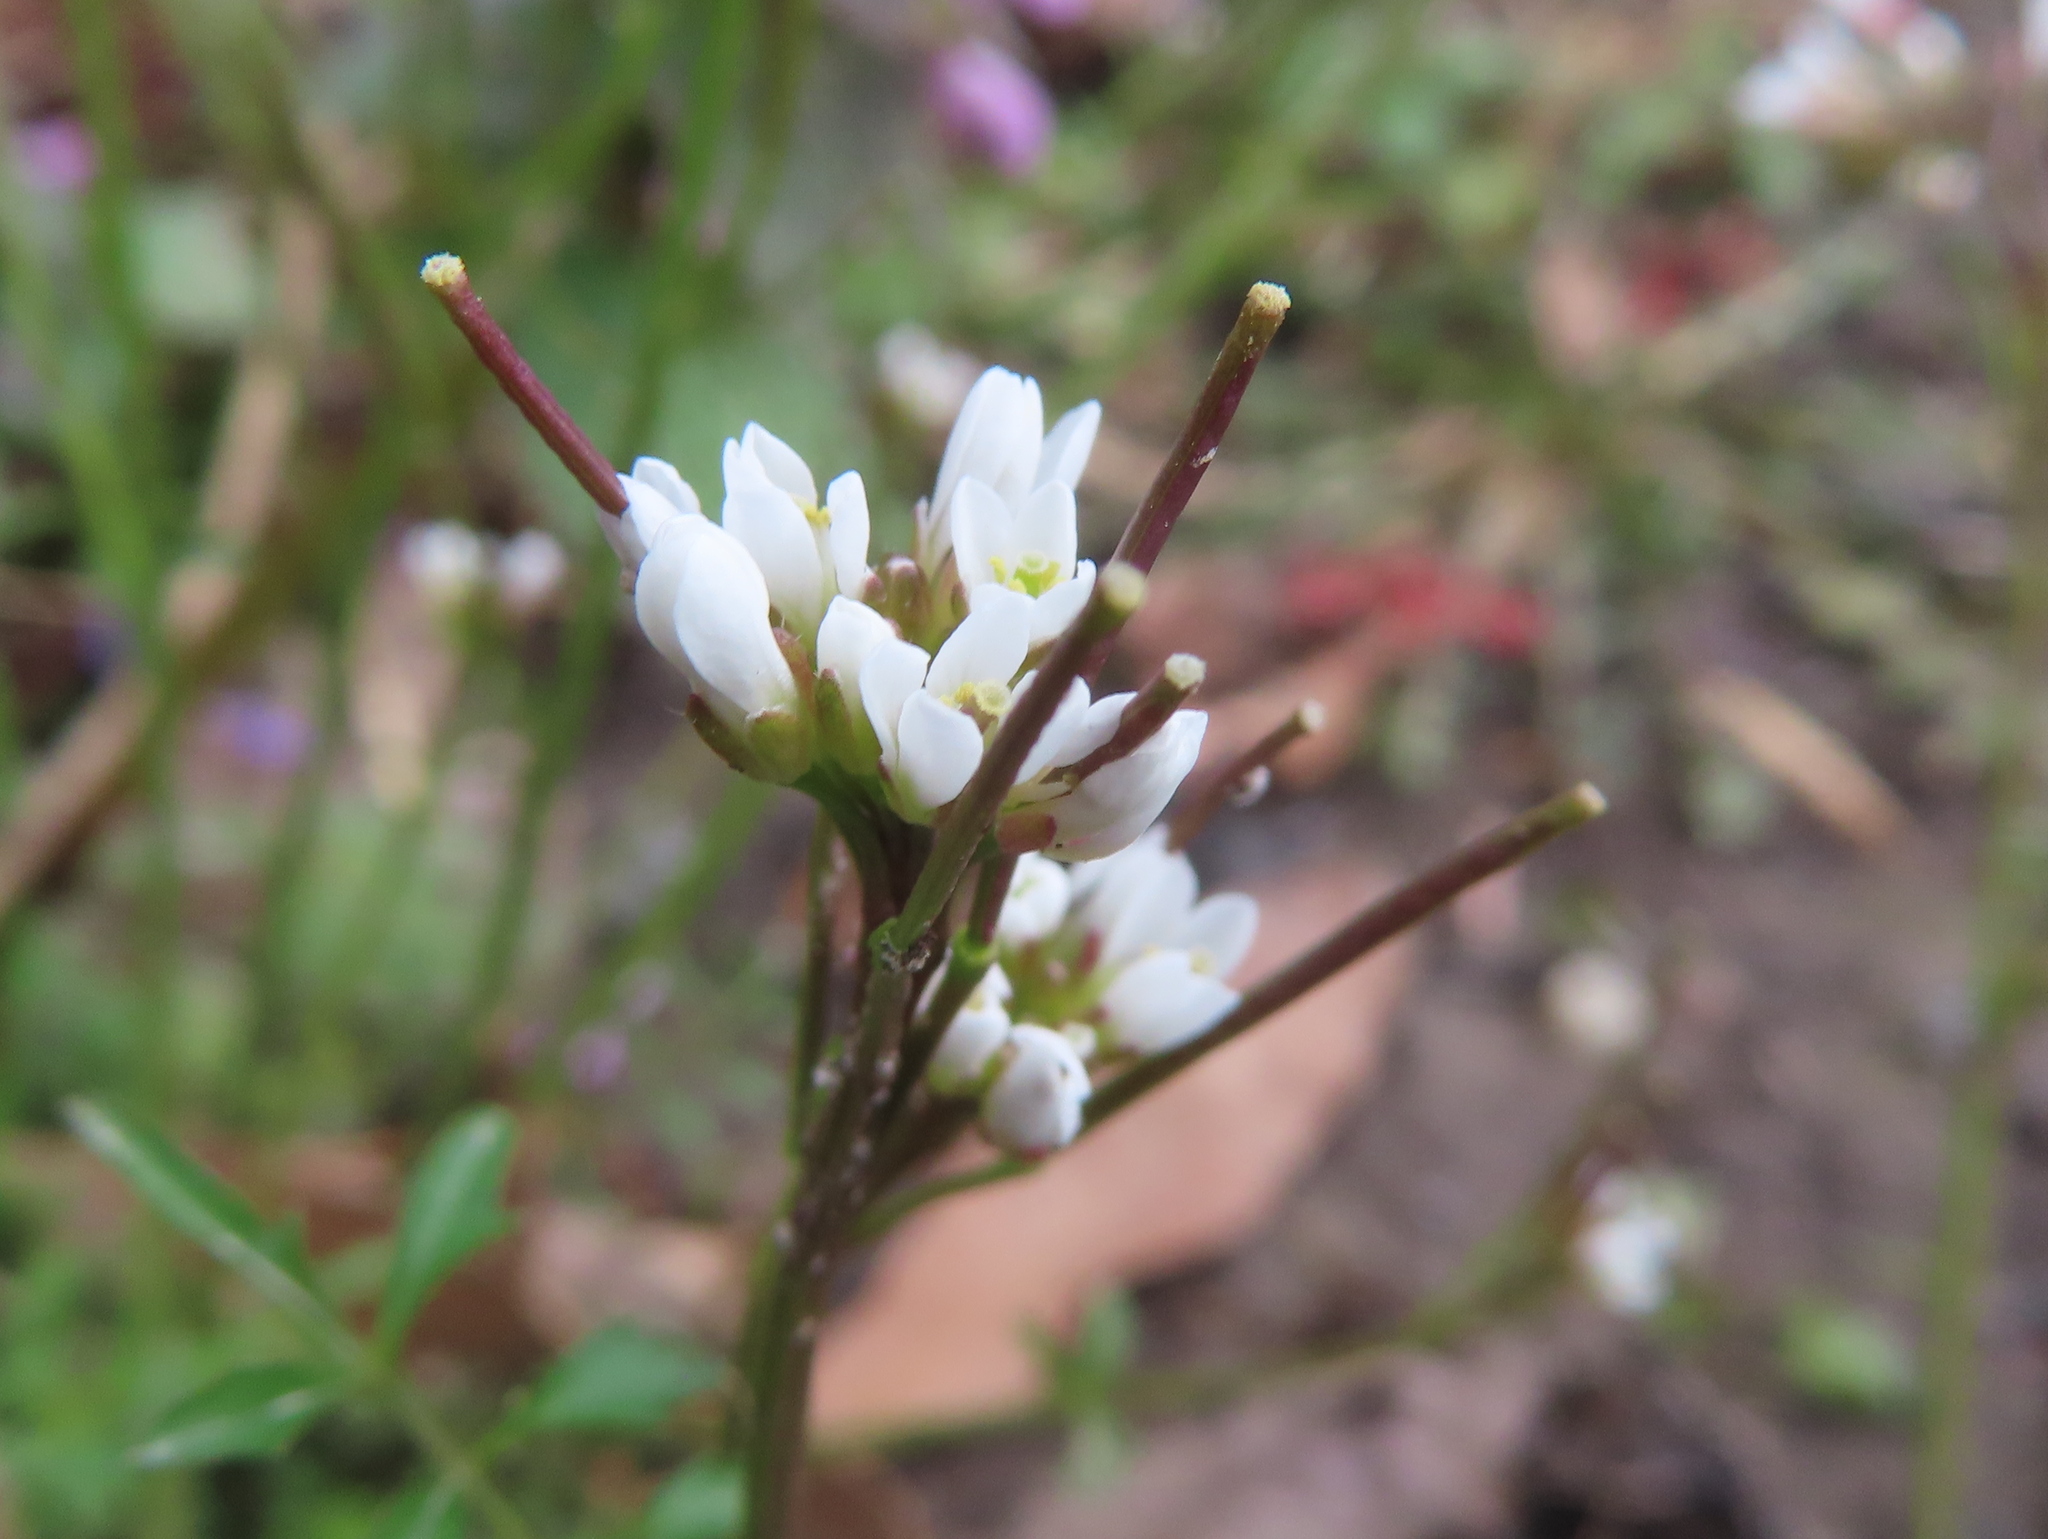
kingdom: Plantae
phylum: Tracheophyta
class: Magnoliopsida
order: Brassicales
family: Brassicaceae
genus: Cardamine
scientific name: Cardamine hirsuta
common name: Hairy bittercress
